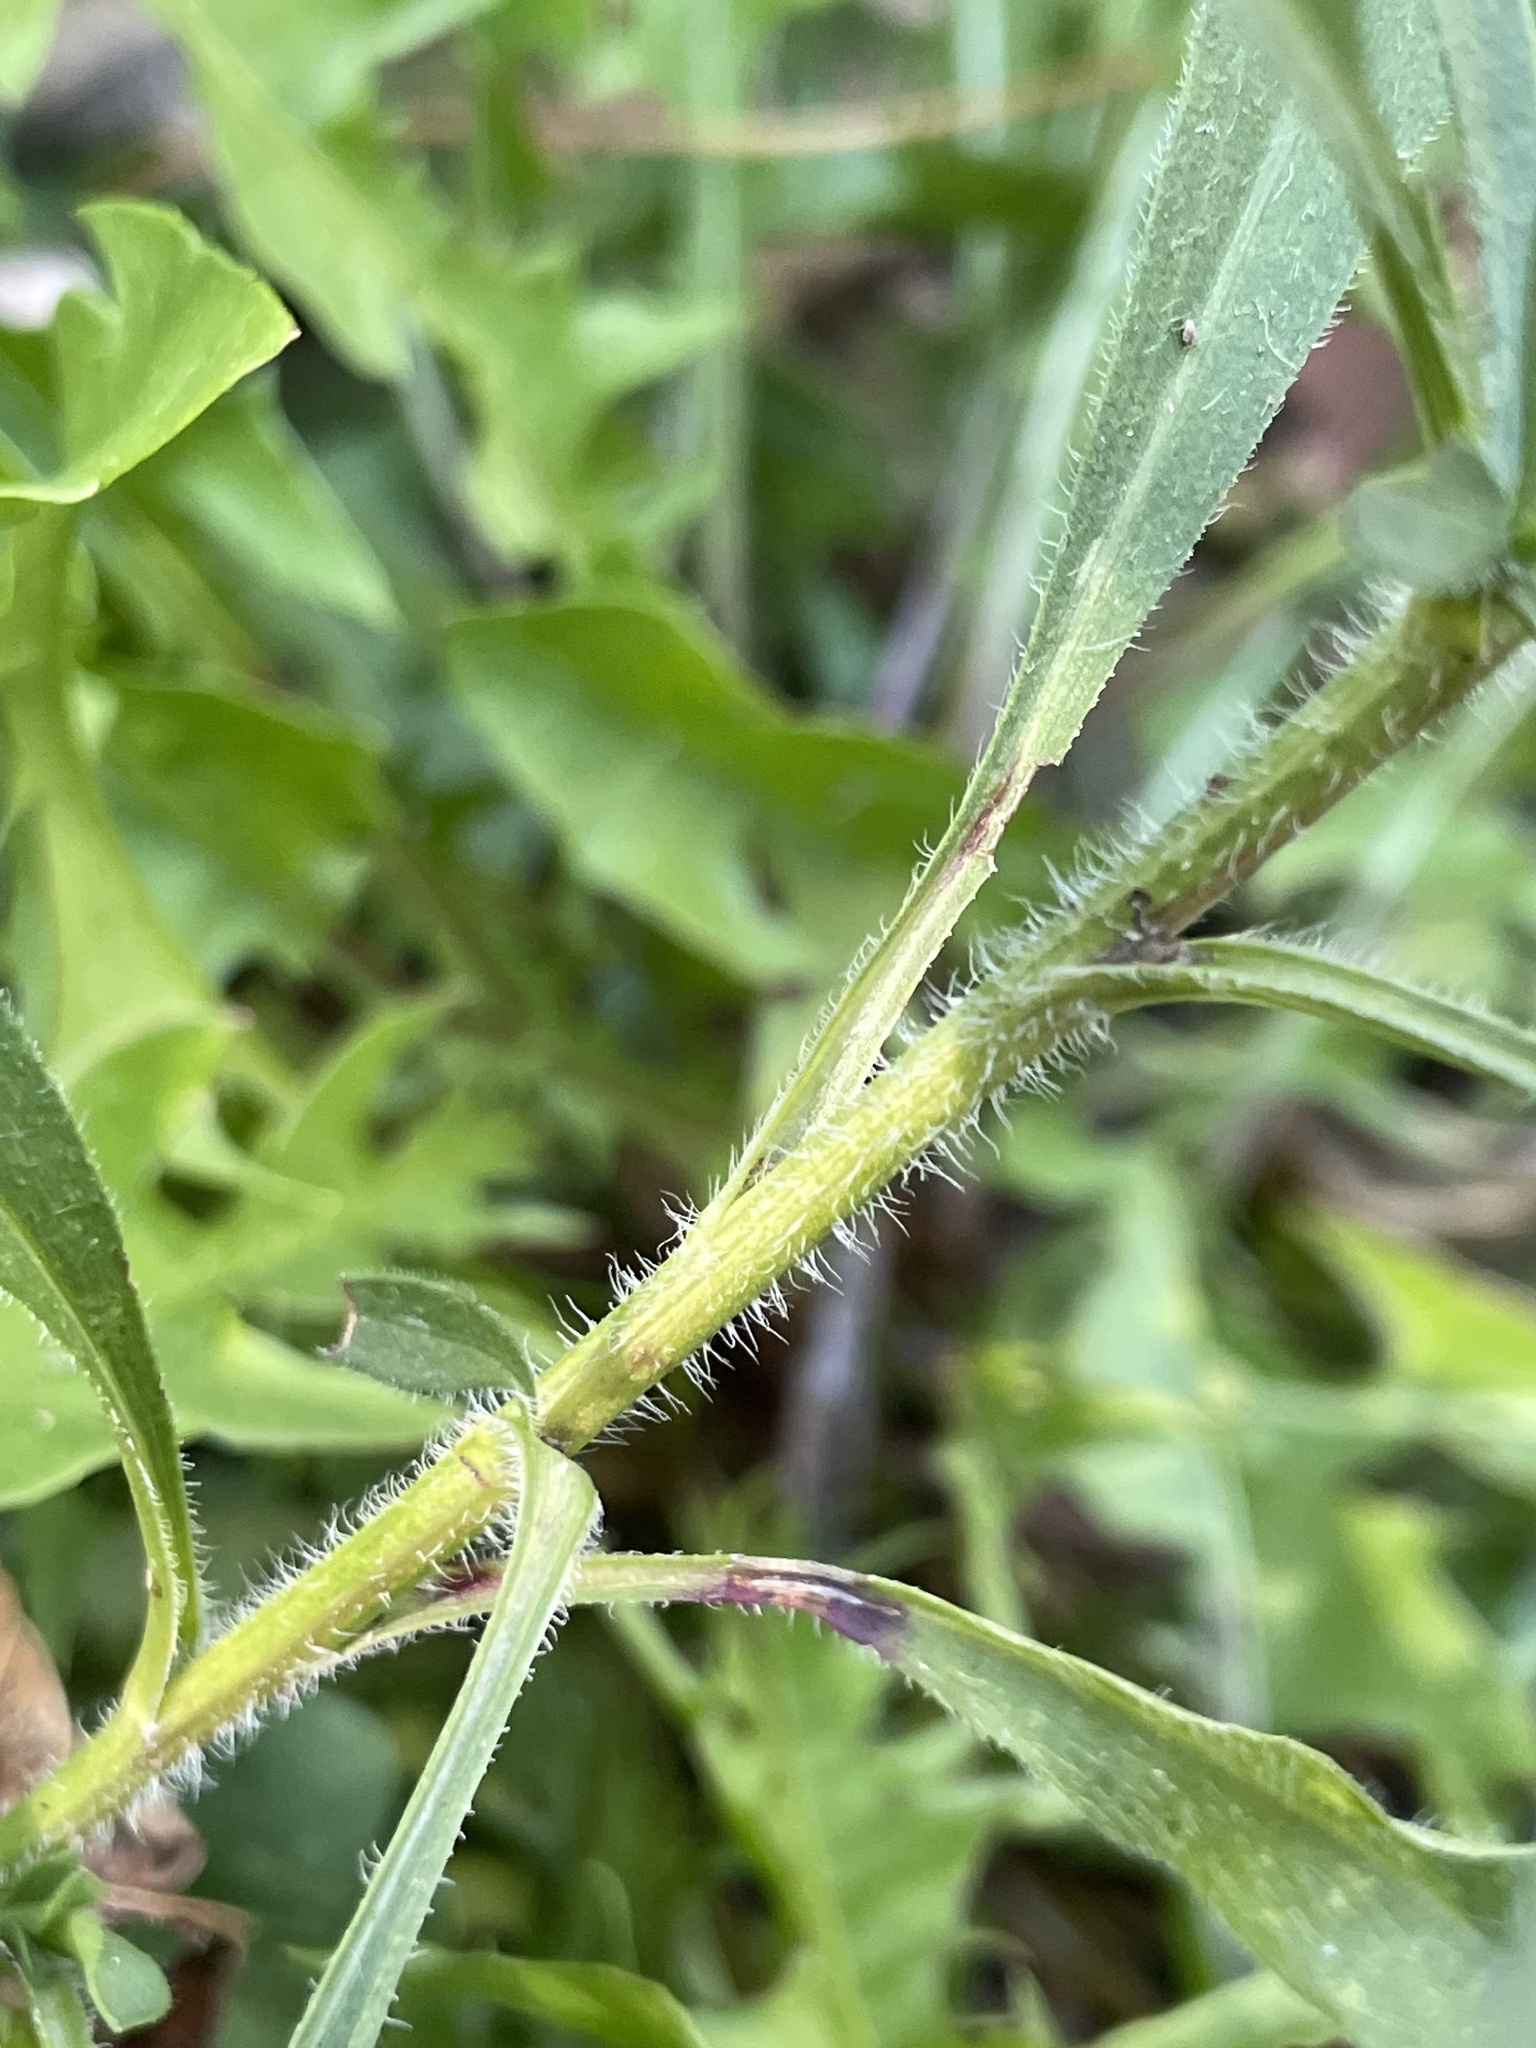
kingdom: Plantae
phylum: Tracheophyta
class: Magnoliopsida
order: Asterales
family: Asteraceae
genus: Symphyotrichum
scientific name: Symphyotrichum pilosum
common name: Awl aster
